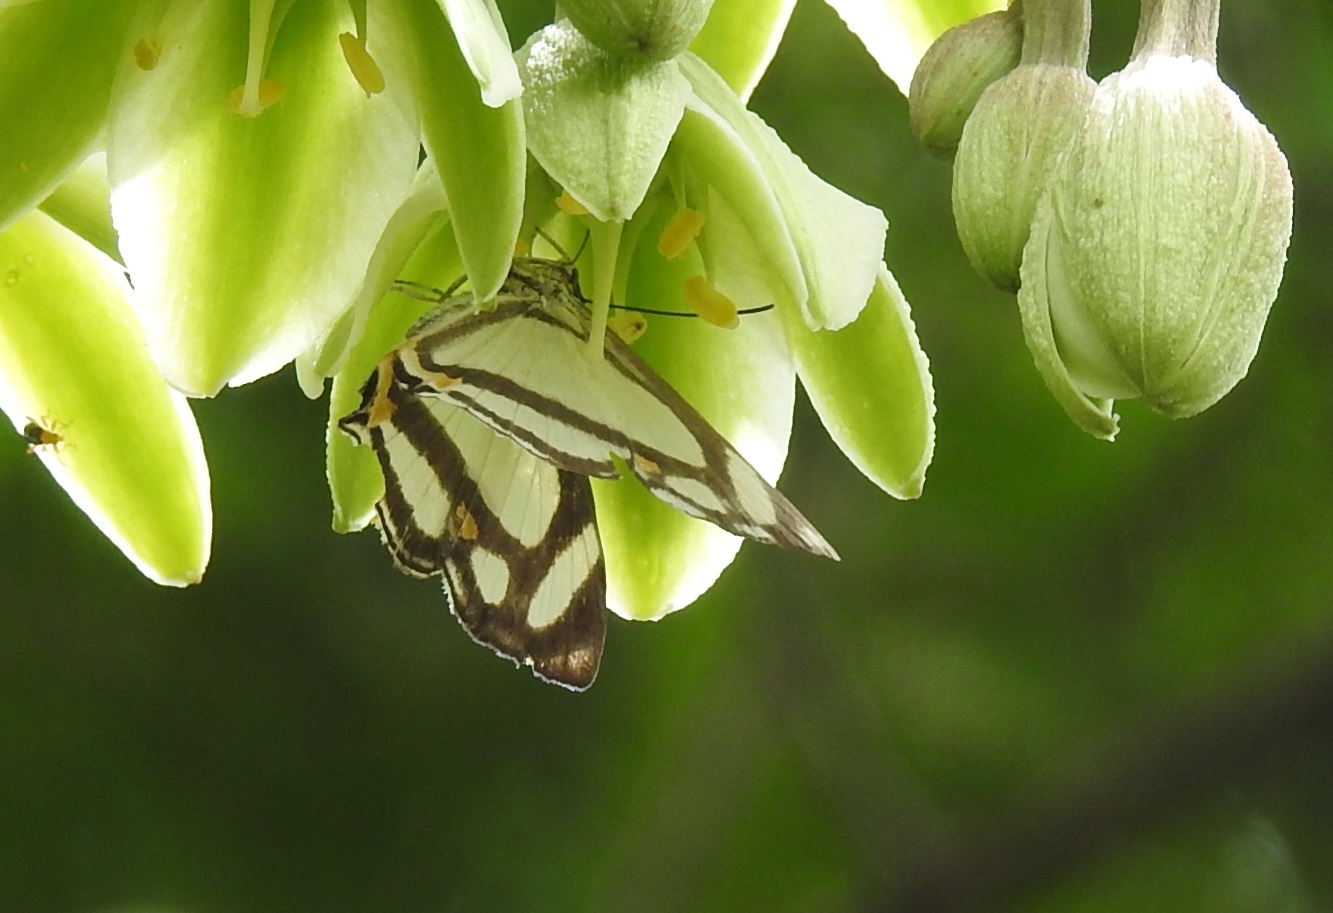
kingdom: Animalia
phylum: Arthropoda
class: Insecta
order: Lepidoptera
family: Riodinidae
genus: Thisbe
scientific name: Thisbe lycorias
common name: Banner metalmark
